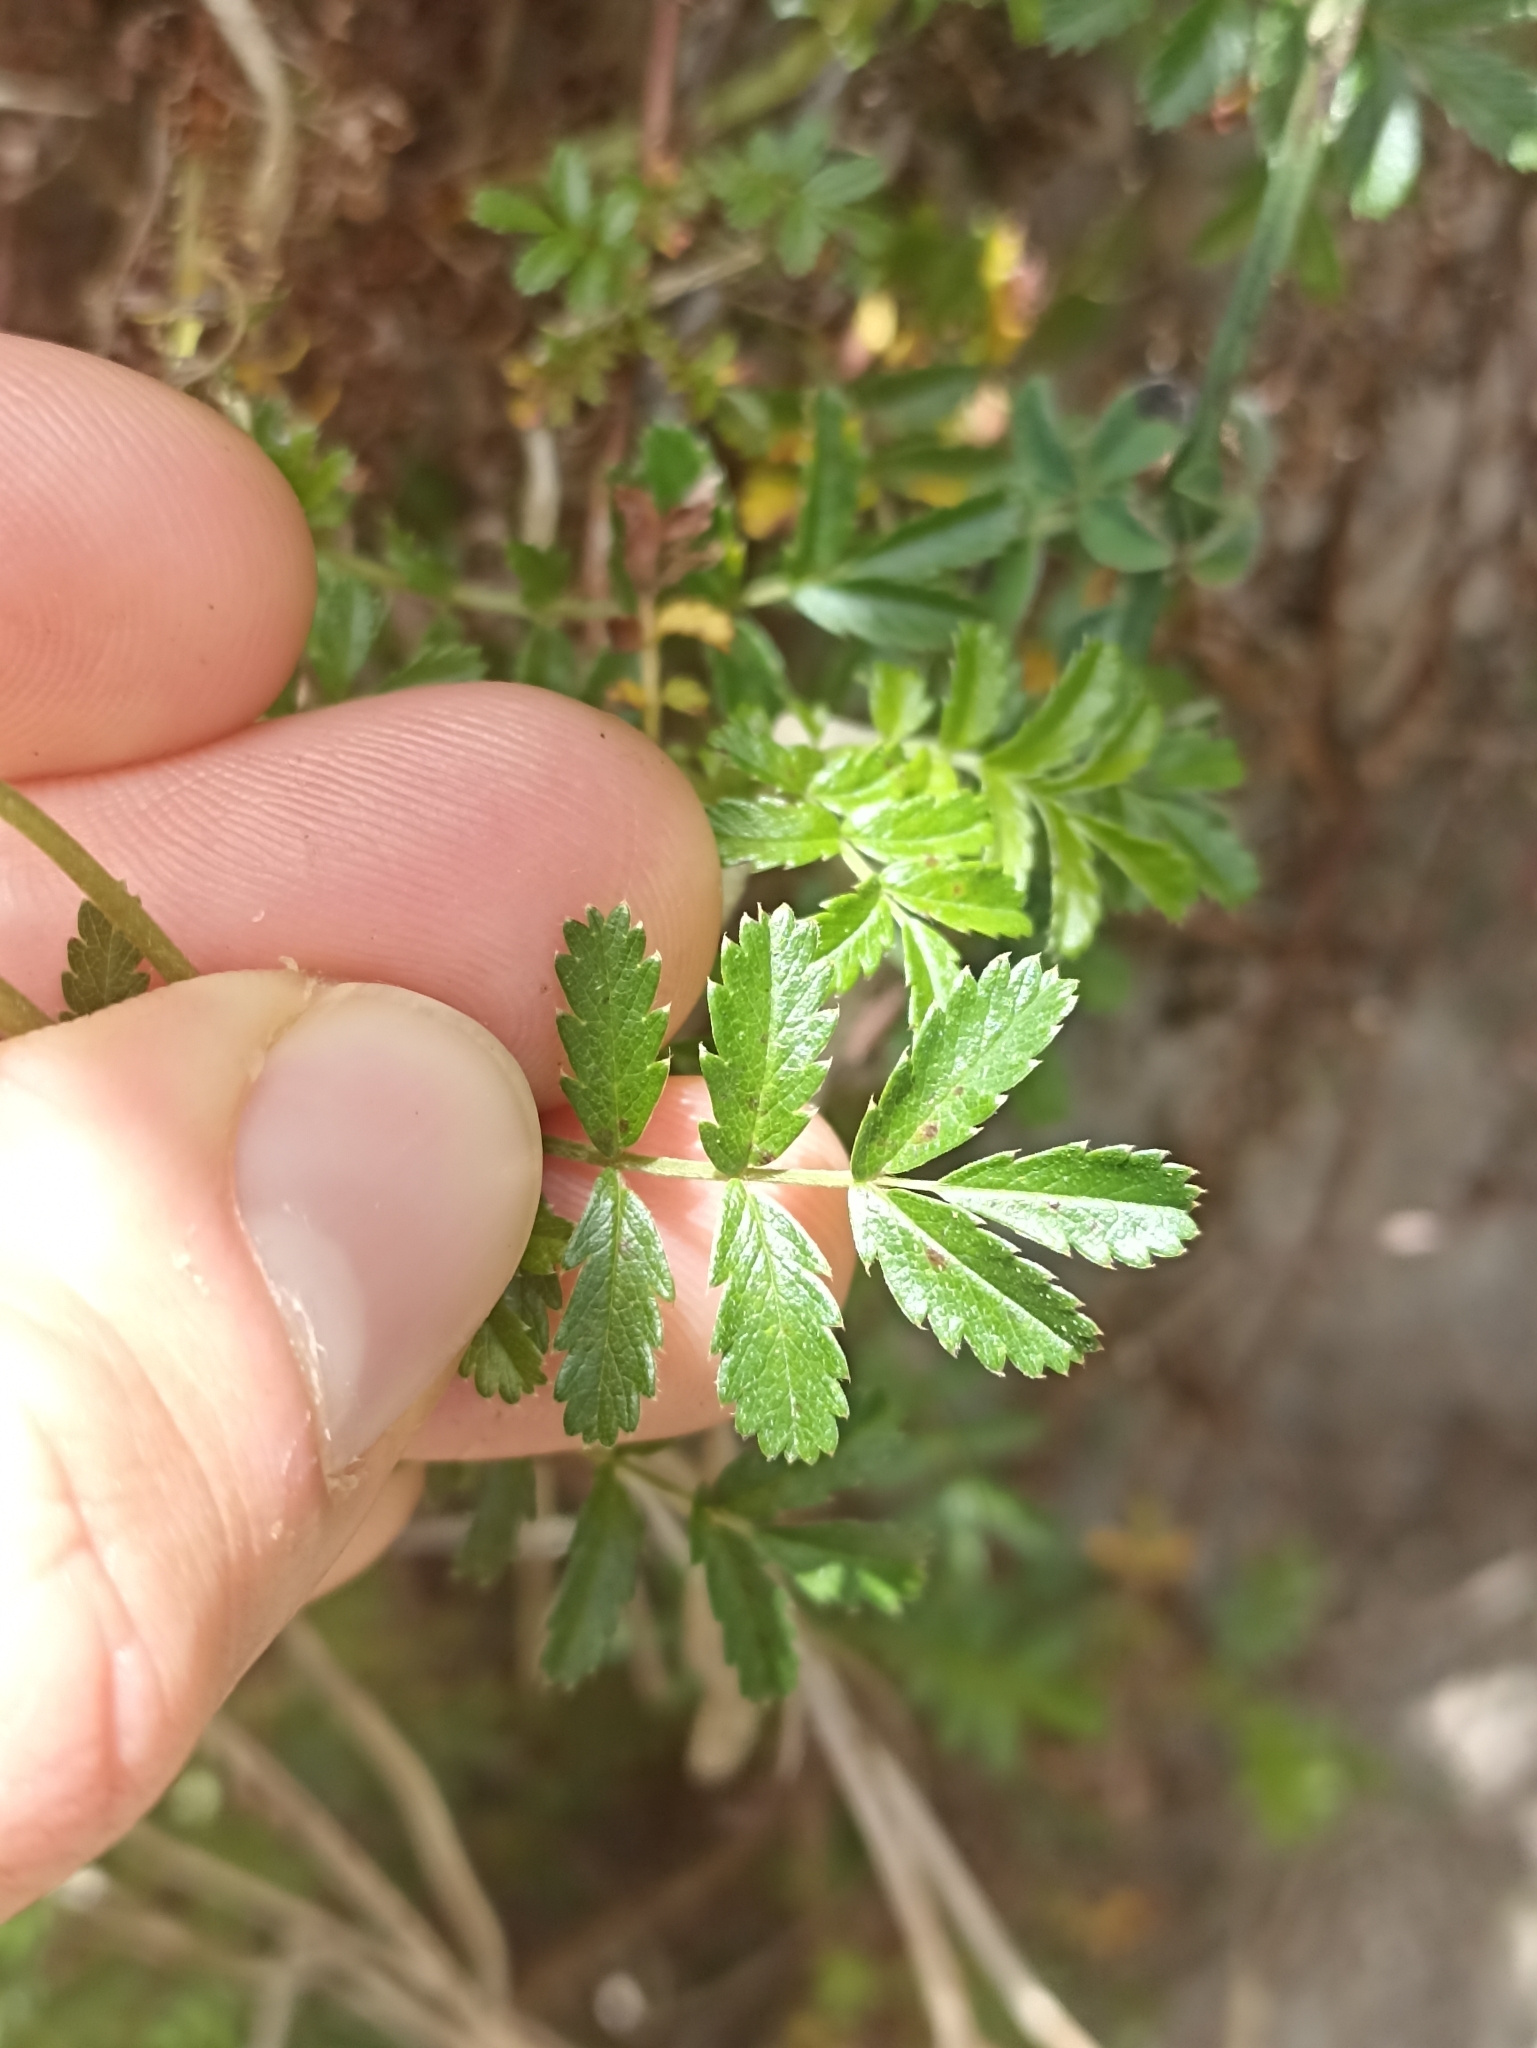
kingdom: Plantae
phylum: Tracheophyta
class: Magnoliopsida
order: Rosales
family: Rosaceae
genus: Acaena
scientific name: Acaena novae-zelandiae
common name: Pirri-pirri-bur
